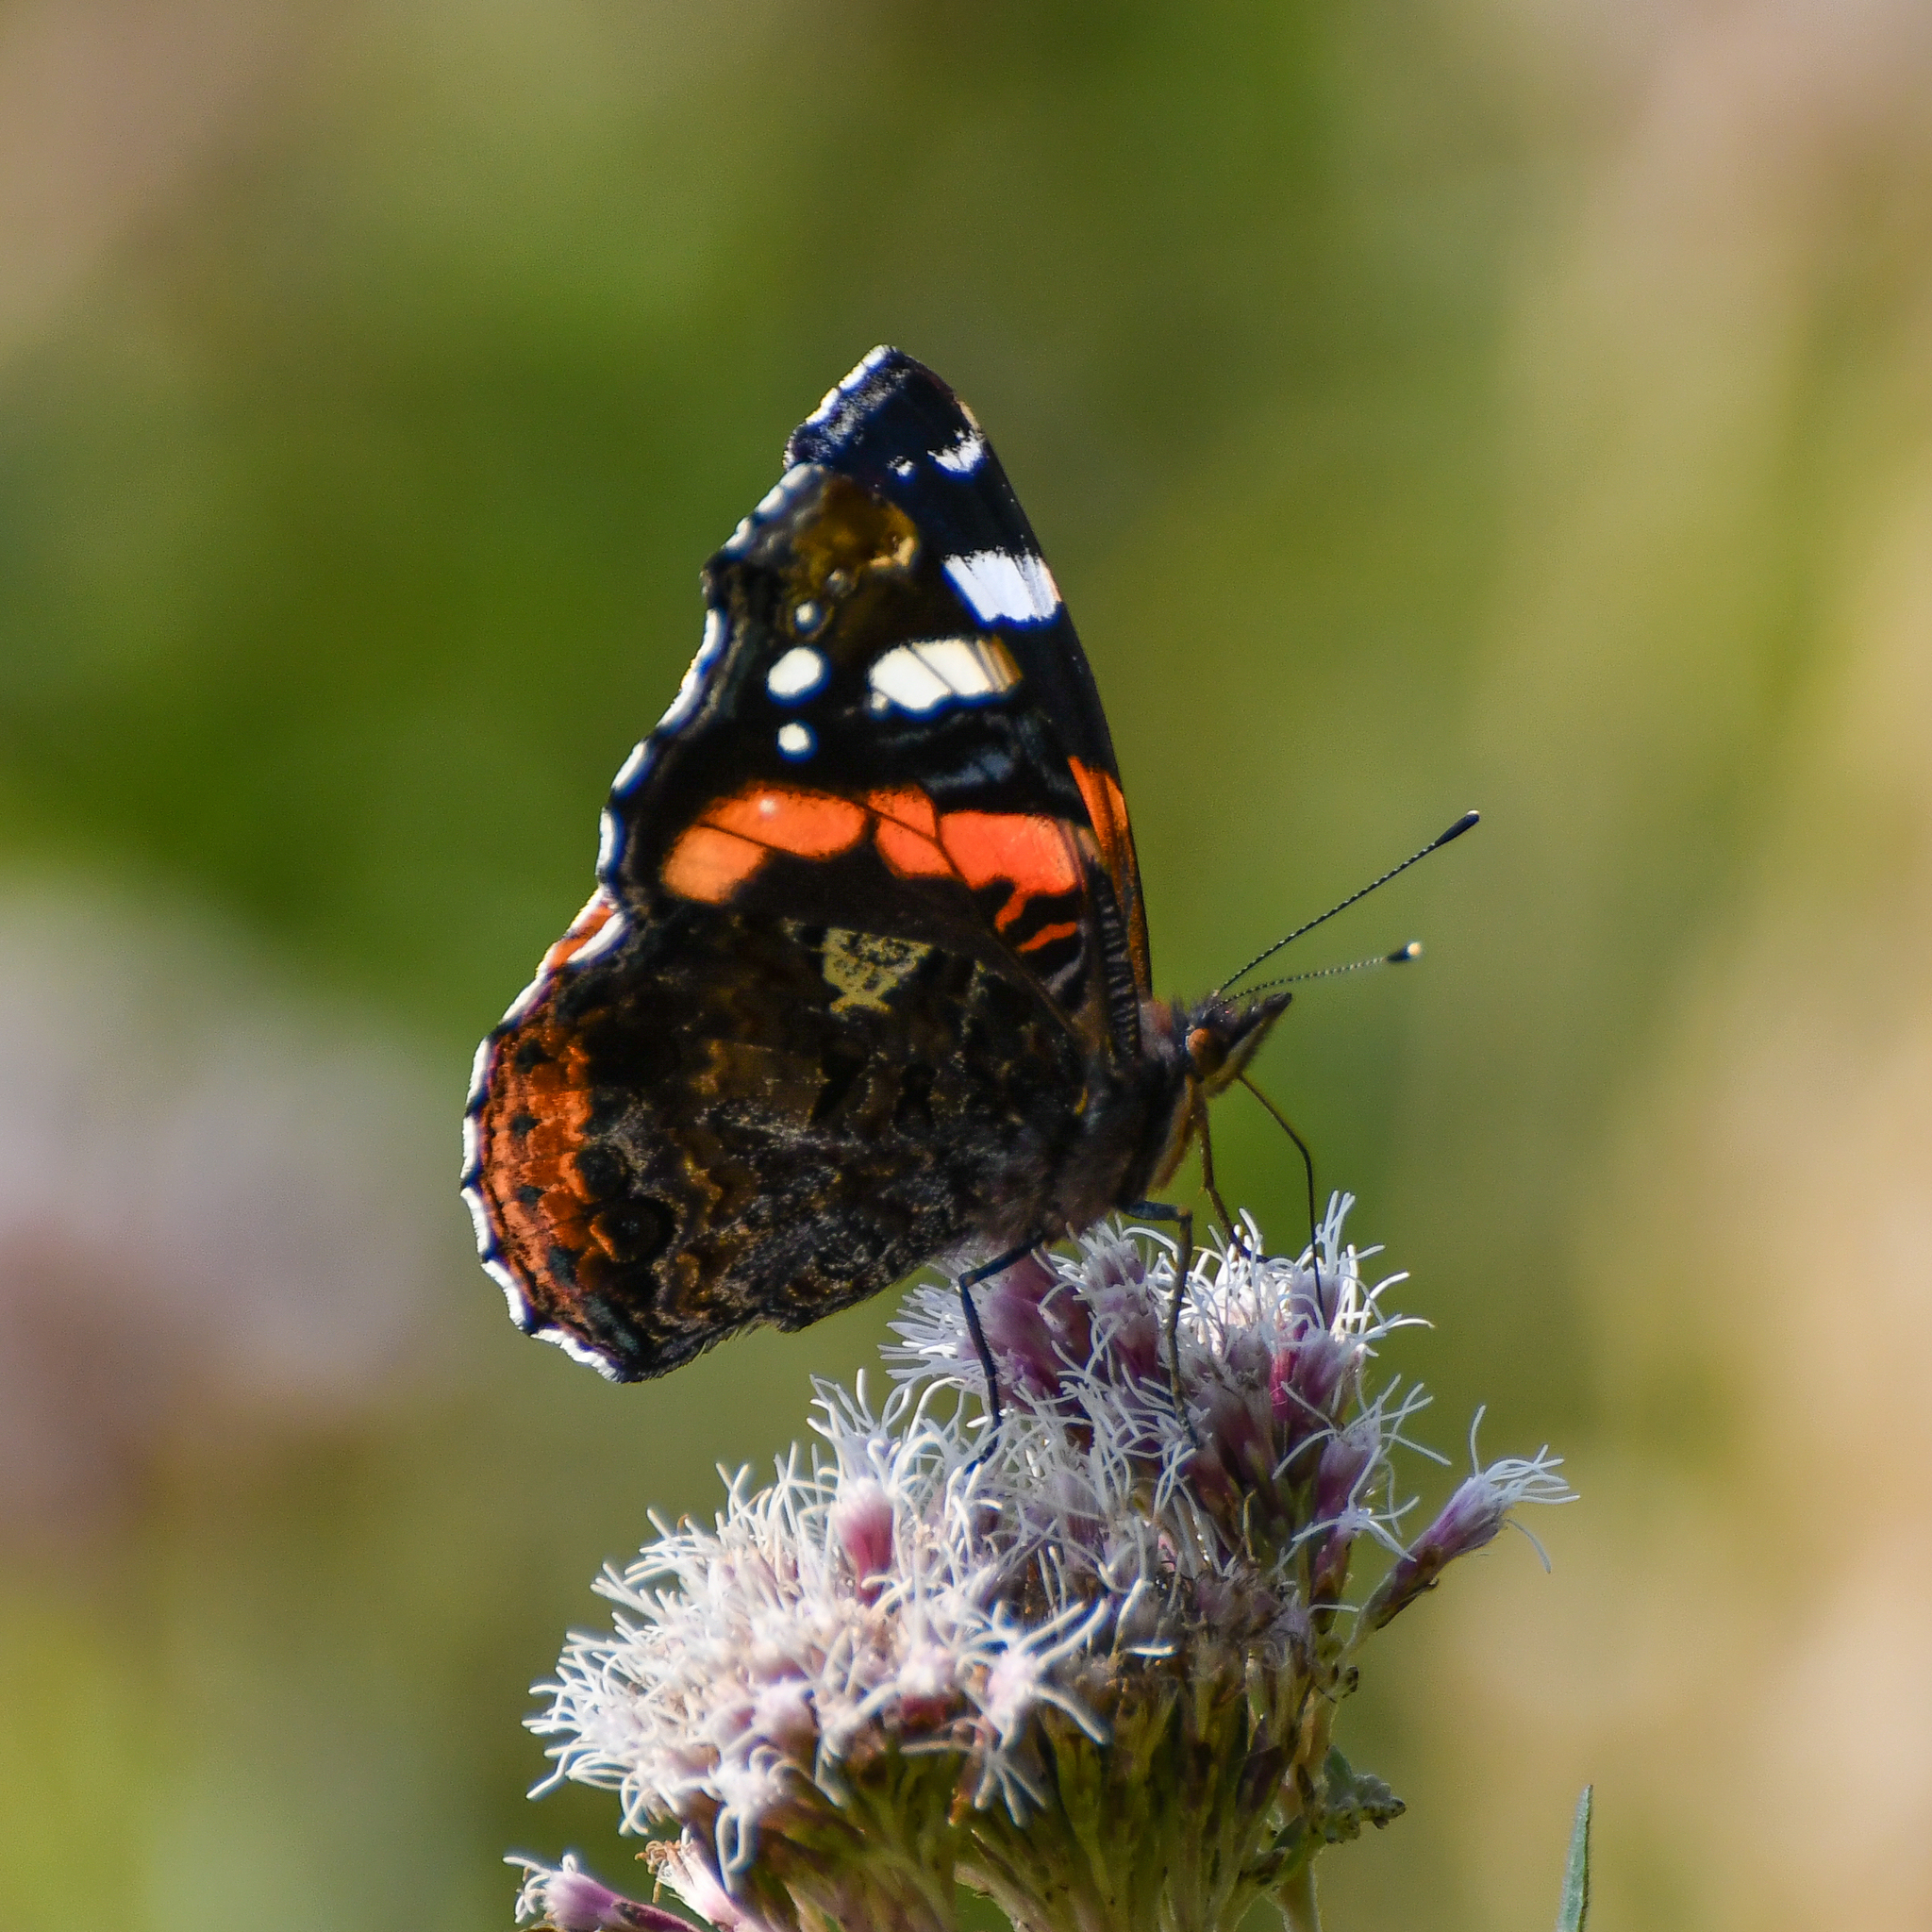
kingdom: Animalia
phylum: Arthropoda
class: Insecta
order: Lepidoptera
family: Nymphalidae
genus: Vanessa
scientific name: Vanessa atalanta
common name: Red admiral
